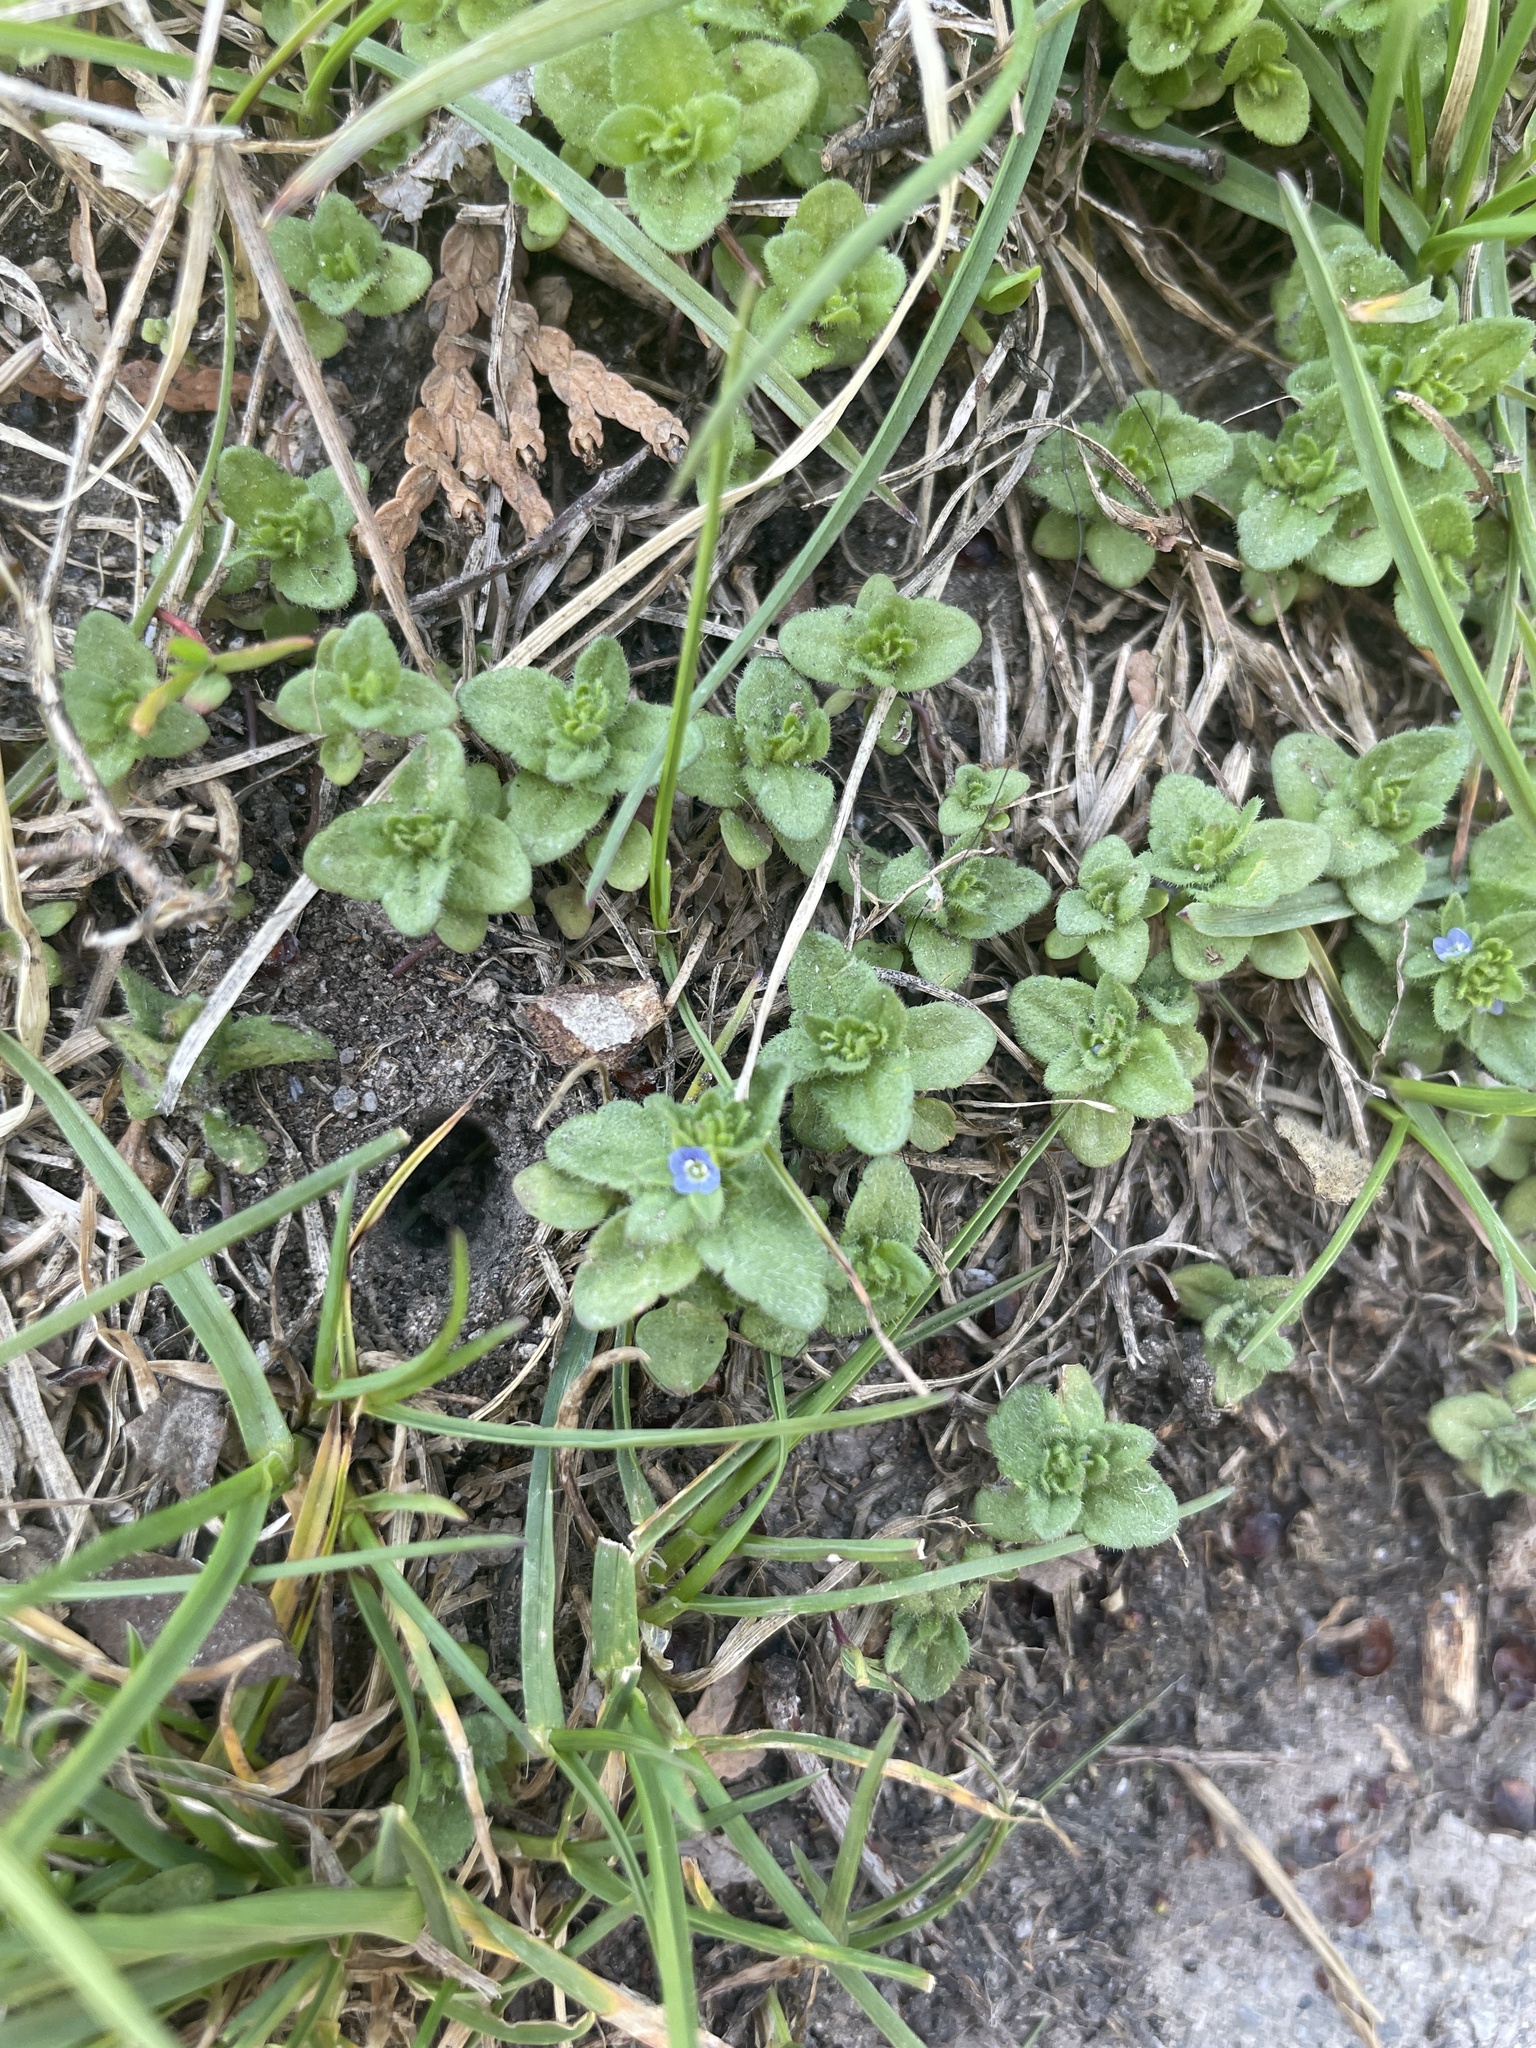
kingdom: Plantae
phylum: Tracheophyta
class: Magnoliopsida
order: Lamiales
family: Plantaginaceae
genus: Veronica
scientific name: Veronica arvensis
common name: Corn speedwell
